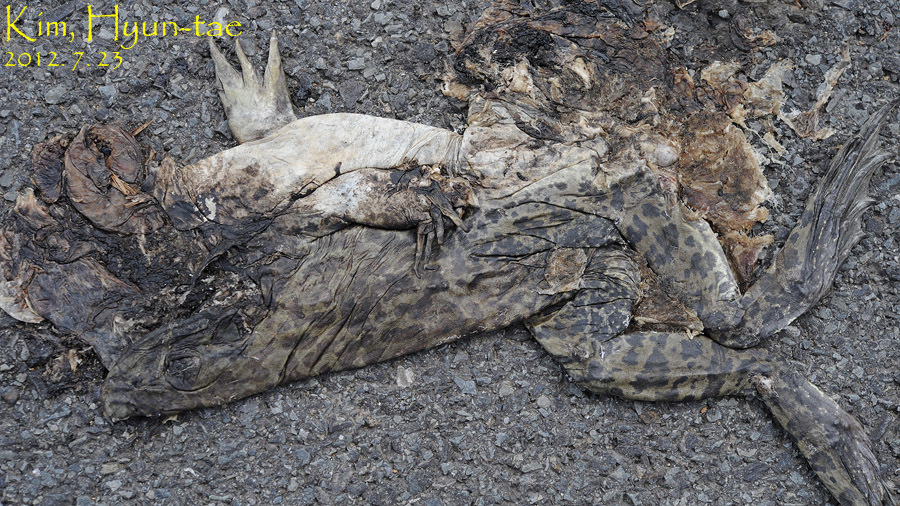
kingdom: Animalia
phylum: Chordata
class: Amphibia
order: Anura
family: Ranidae
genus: Pelophylax
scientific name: Pelophylax nigromaculatus
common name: Black-spotted pond frog
